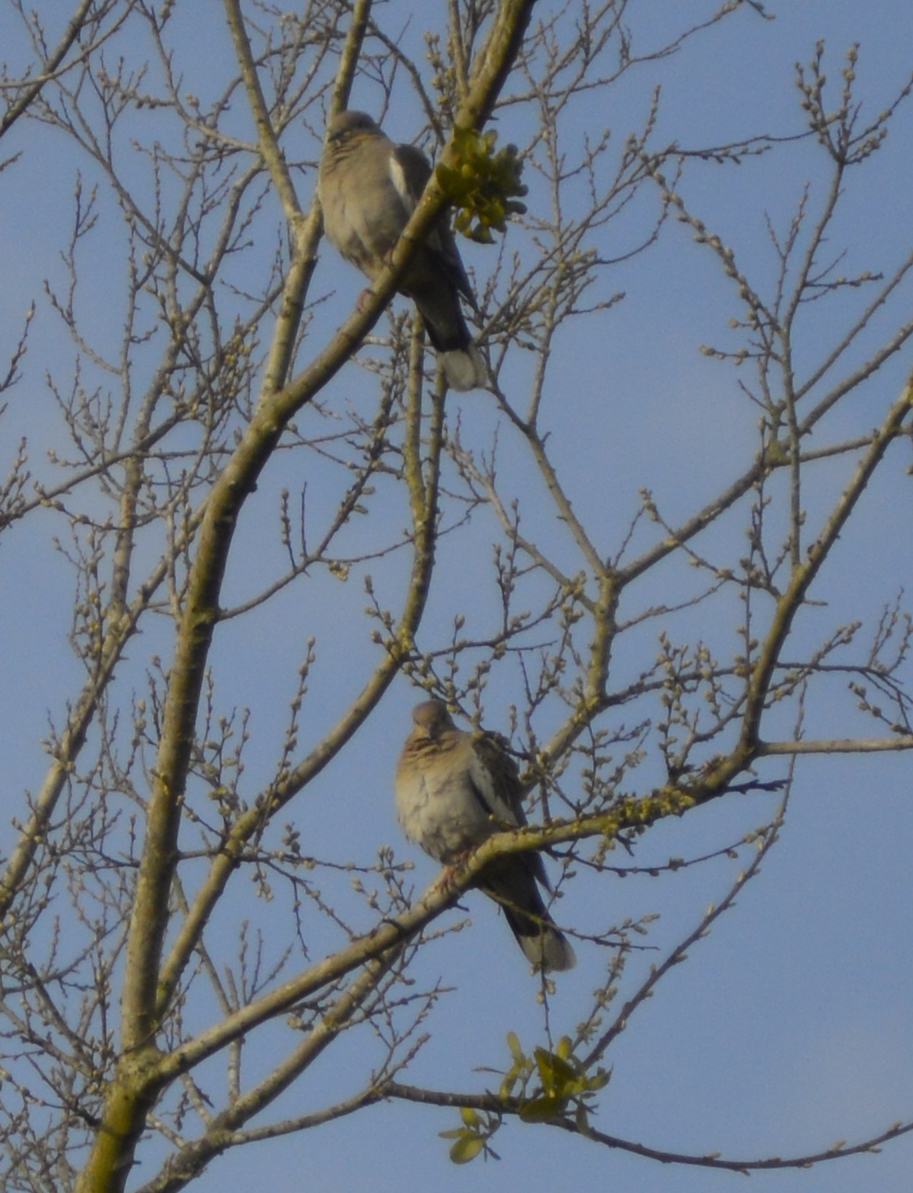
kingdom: Animalia
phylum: Chordata
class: Aves
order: Columbiformes
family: Columbidae
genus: Zenaida
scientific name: Zenaida asiatica
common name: White-winged dove
